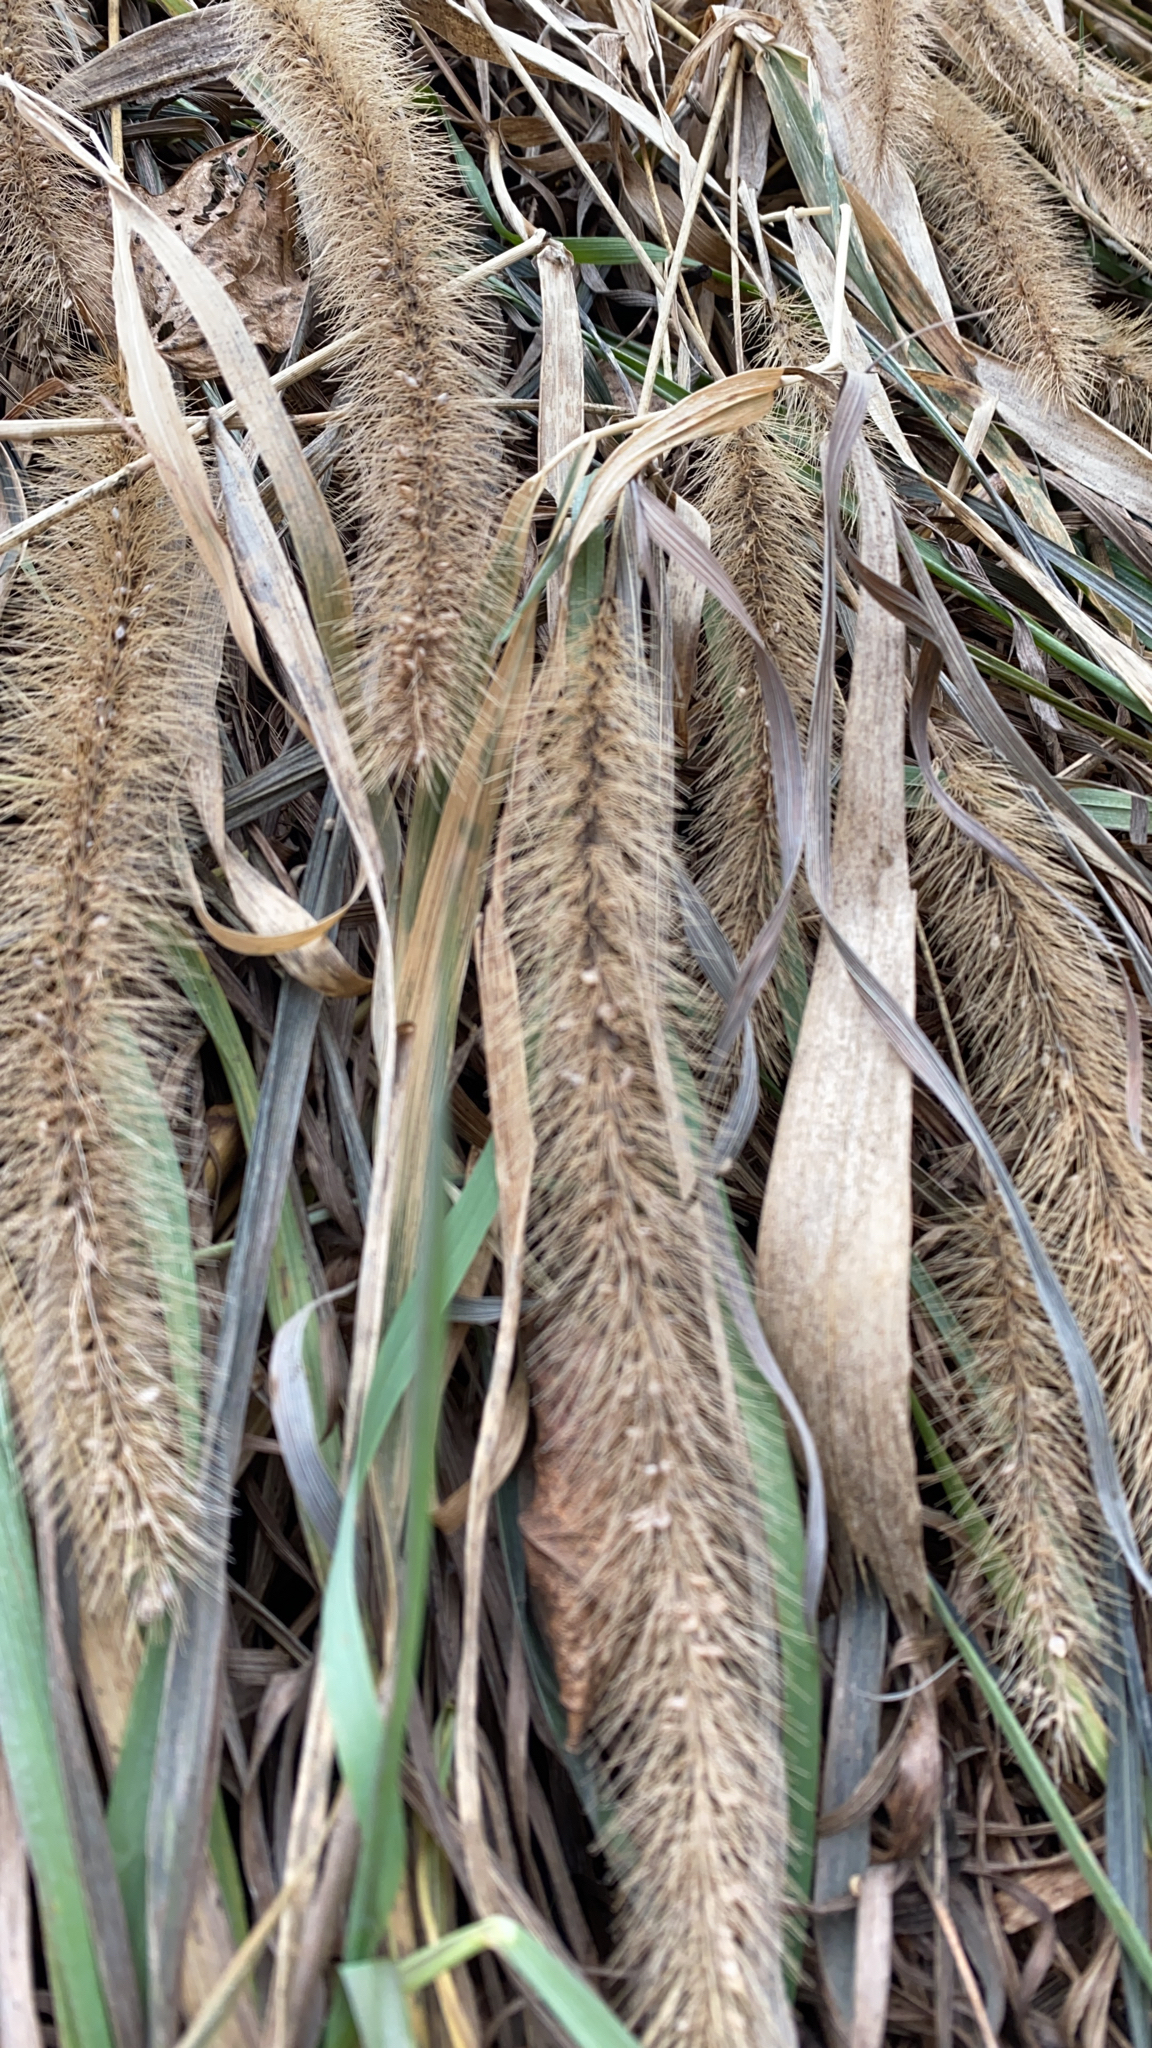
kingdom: Plantae
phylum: Tracheophyta
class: Liliopsida
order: Poales
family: Poaceae
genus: Setaria
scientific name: Setaria faberi
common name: Nodding bristle-grass
